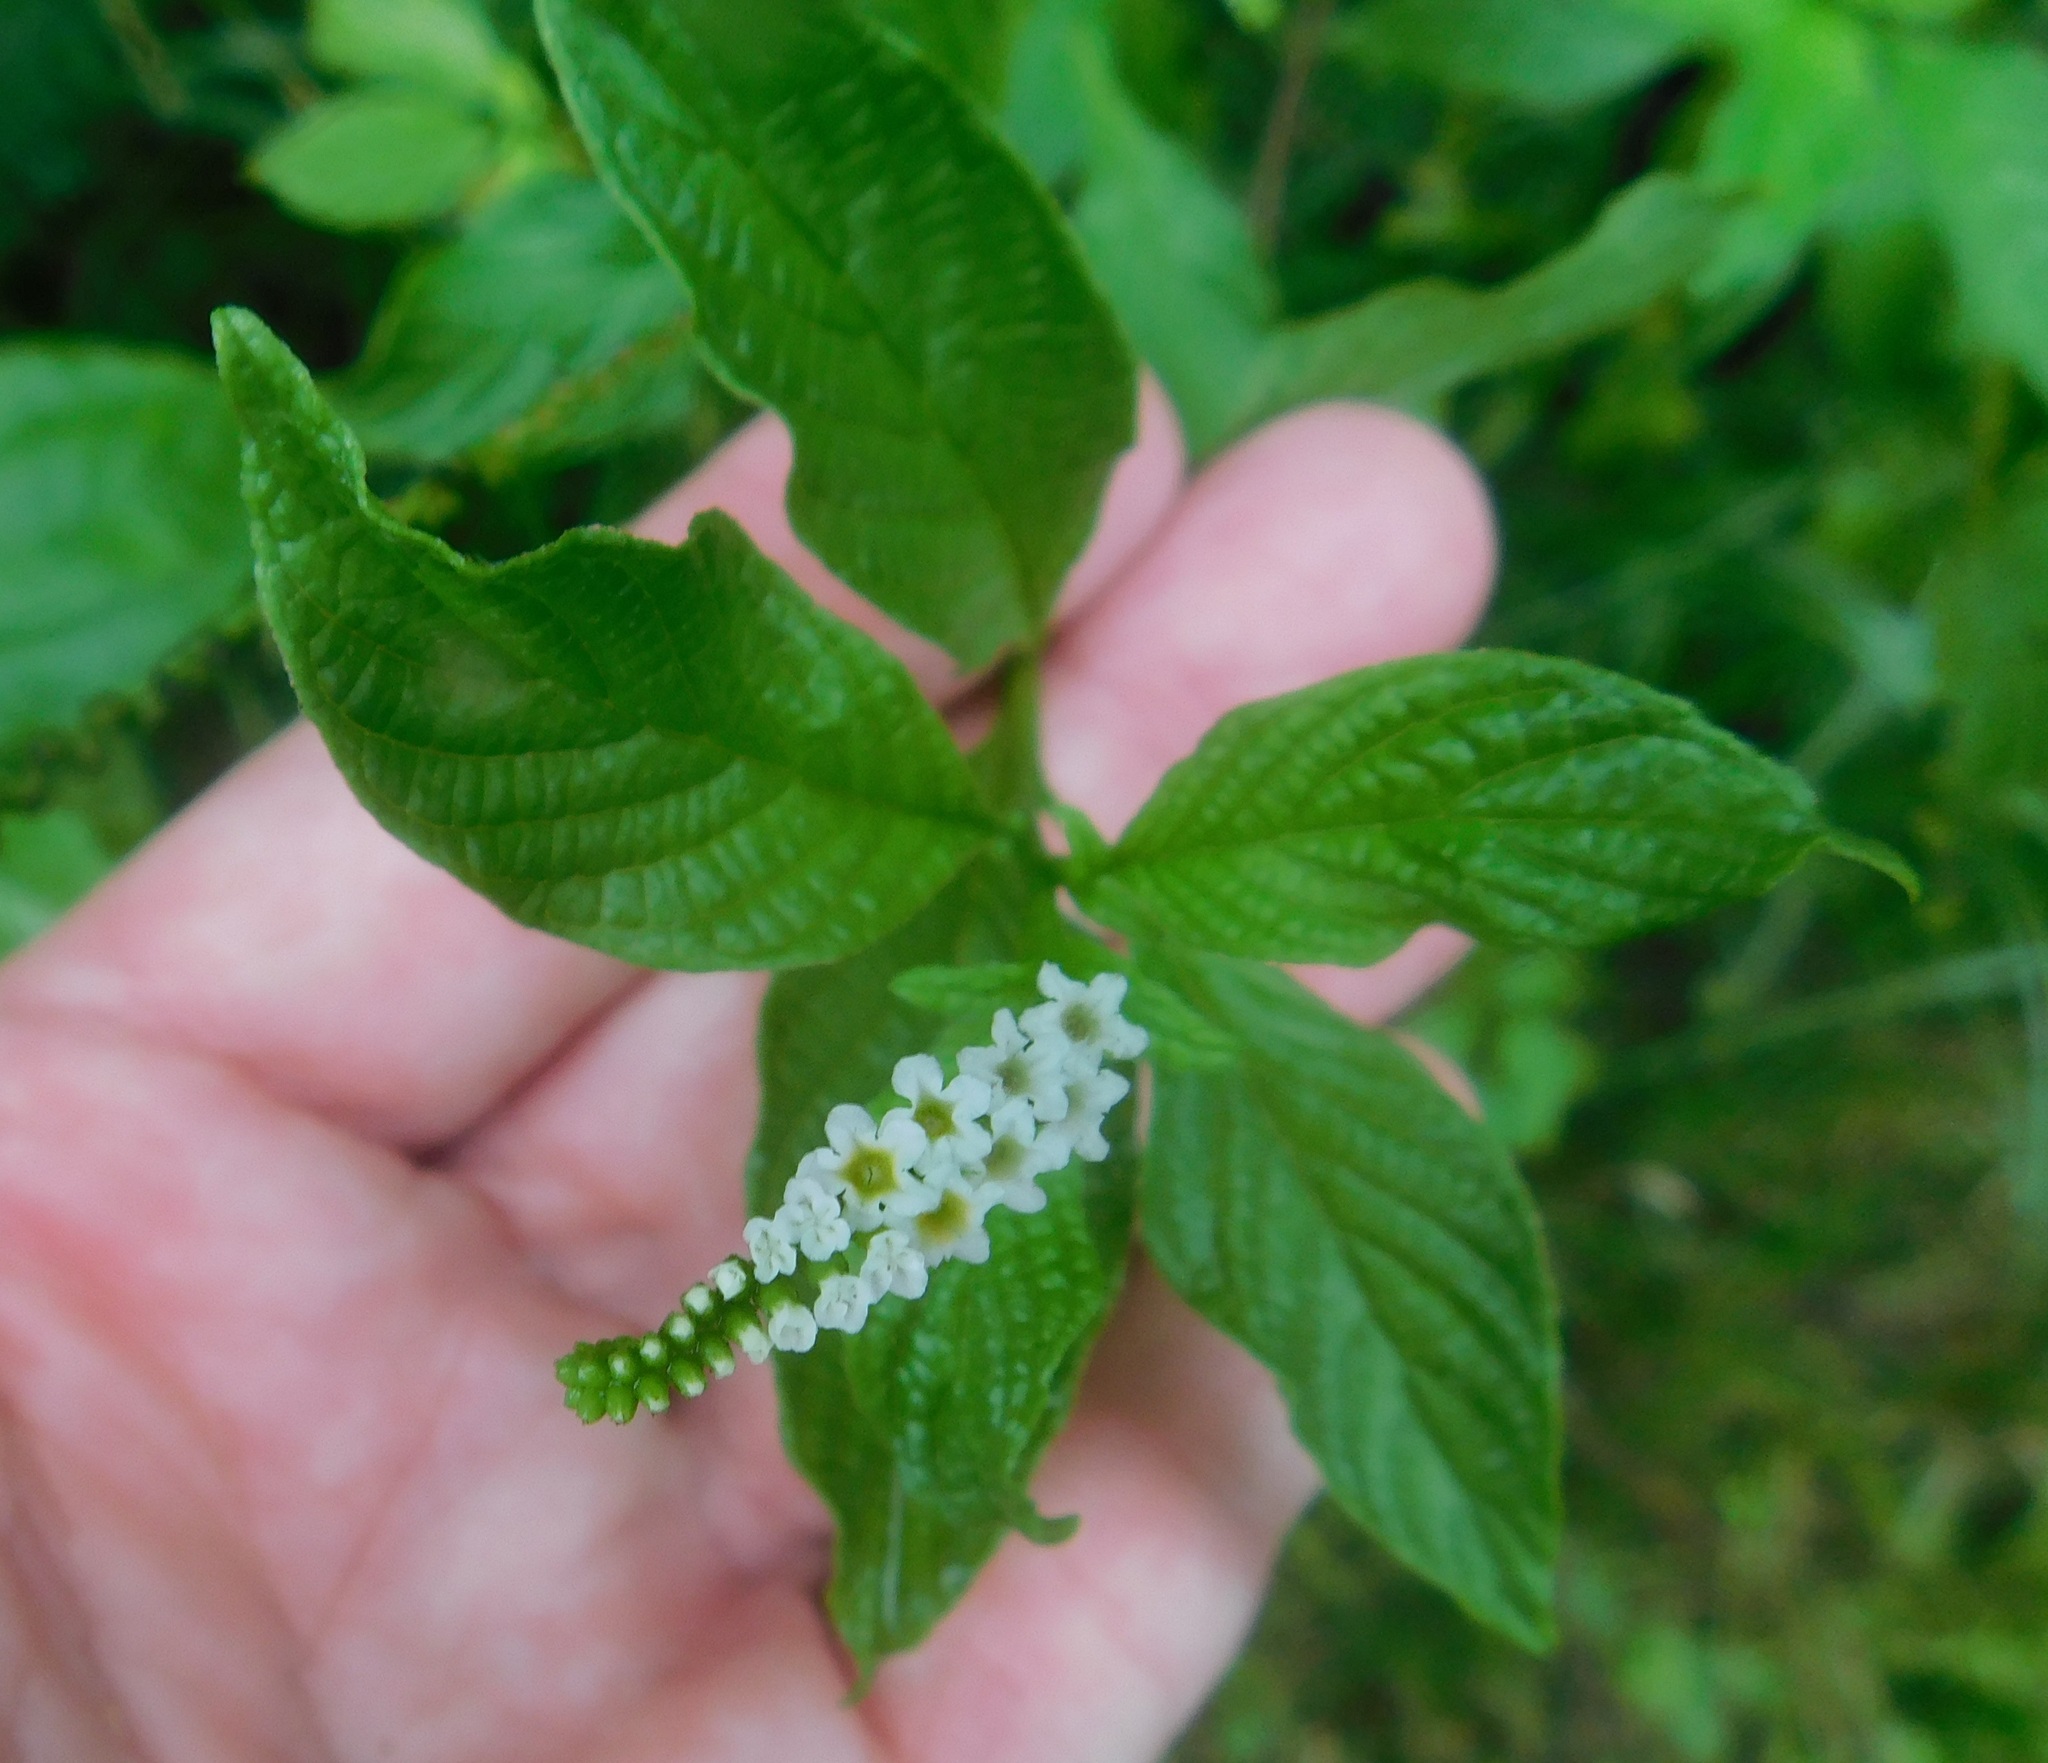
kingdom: Plantae
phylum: Tracheophyta
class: Magnoliopsida
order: Boraginales
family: Heliotropiaceae
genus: Heliotropium
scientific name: Heliotropium angiospermum
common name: Eye bright
